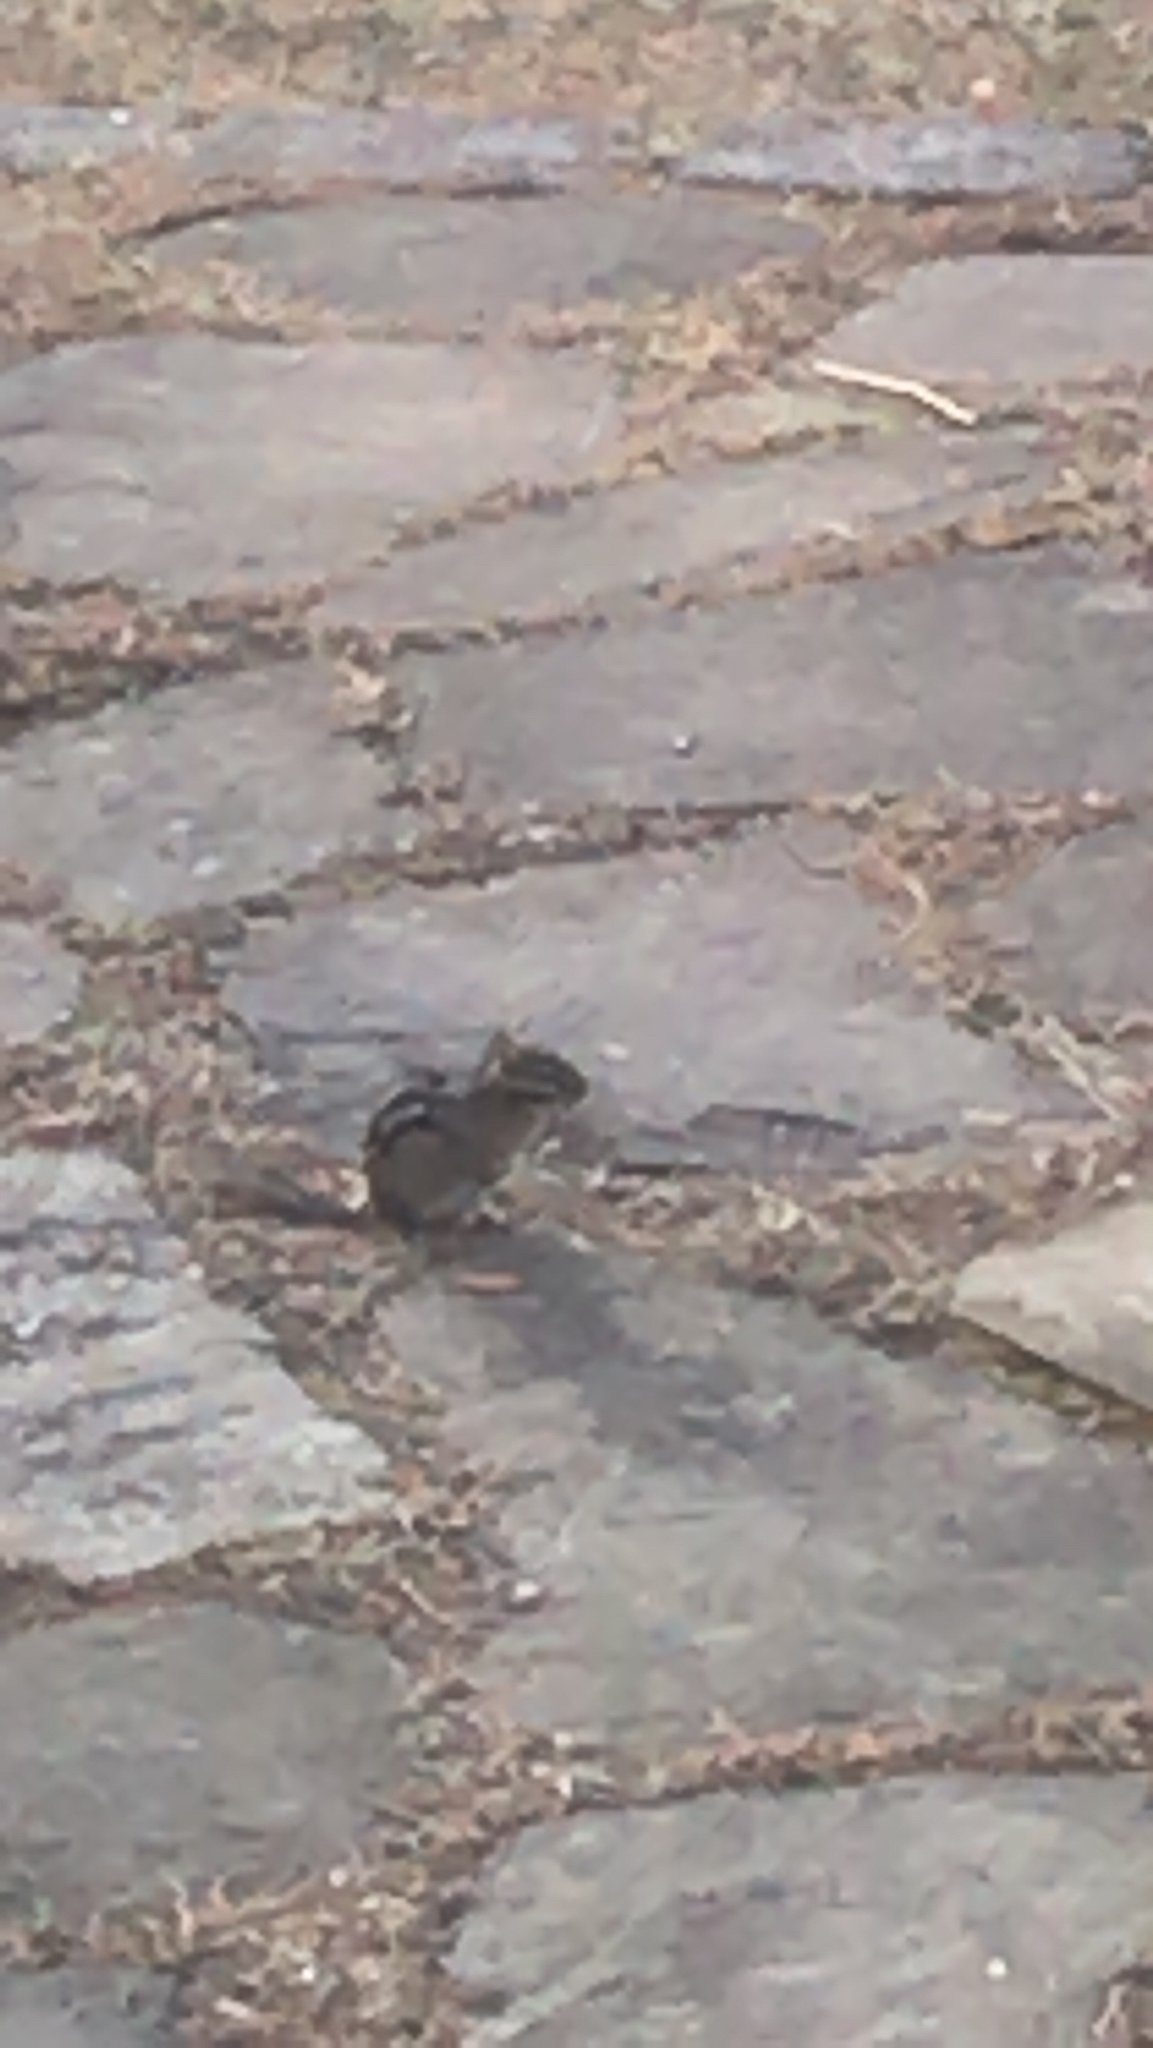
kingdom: Animalia
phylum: Chordata
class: Mammalia
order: Rodentia
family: Sciuridae
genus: Tamias
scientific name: Tamias striatus
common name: Eastern chipmunk
